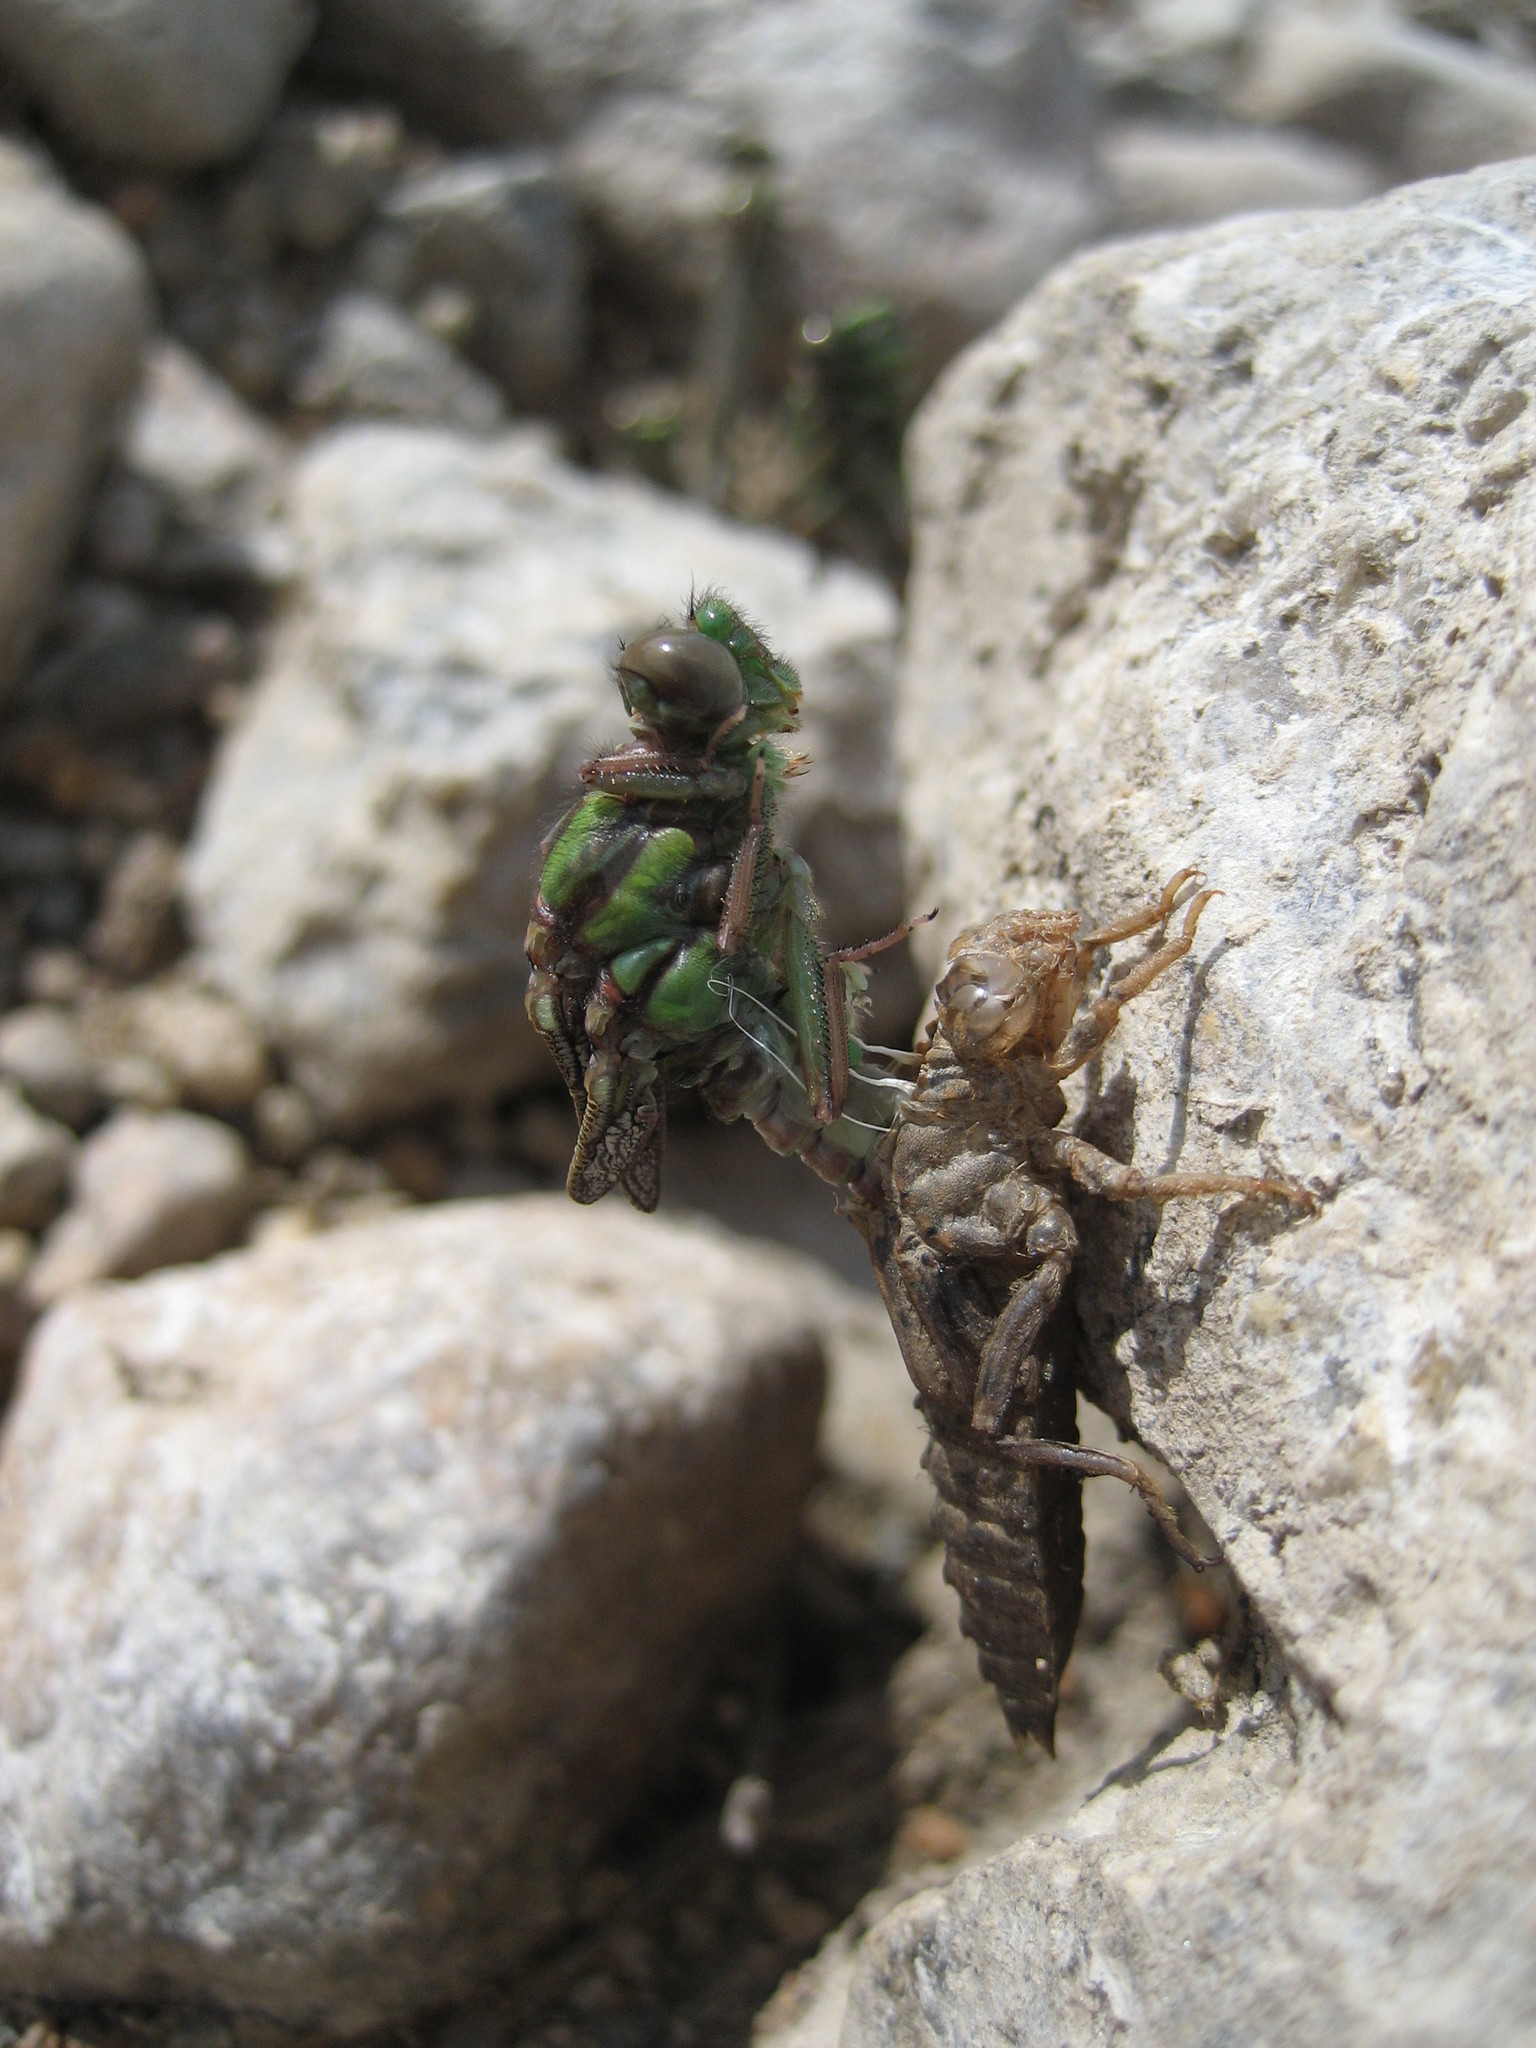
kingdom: Animalia
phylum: Arthropoda
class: Insecta
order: Odonata
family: Gomphidae
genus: Ophiogomphus
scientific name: Ophiogomphus colubrinus
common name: Boreal snaketail
